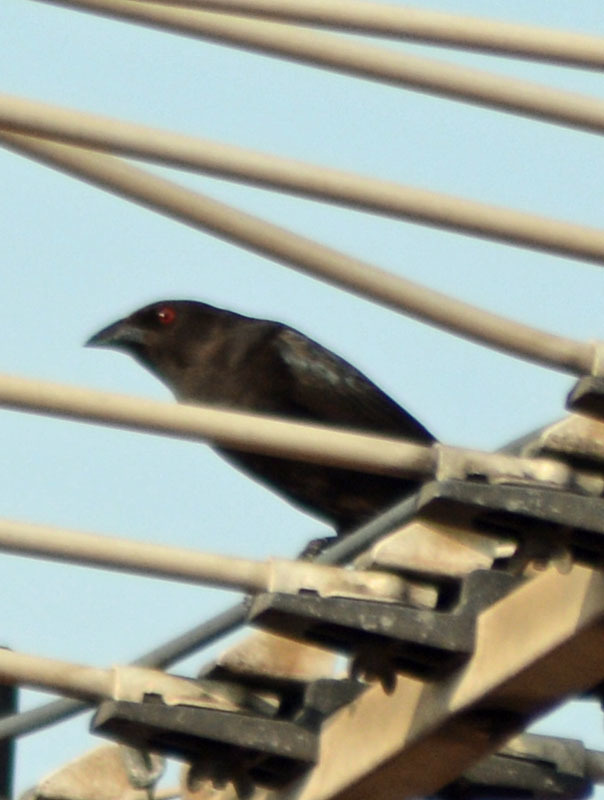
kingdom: Animalia
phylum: Chordata
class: Aves
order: Passeriformes
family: Icteridae
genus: Molothrus
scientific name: Molothrus aeneus
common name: Bronzed cowbird
